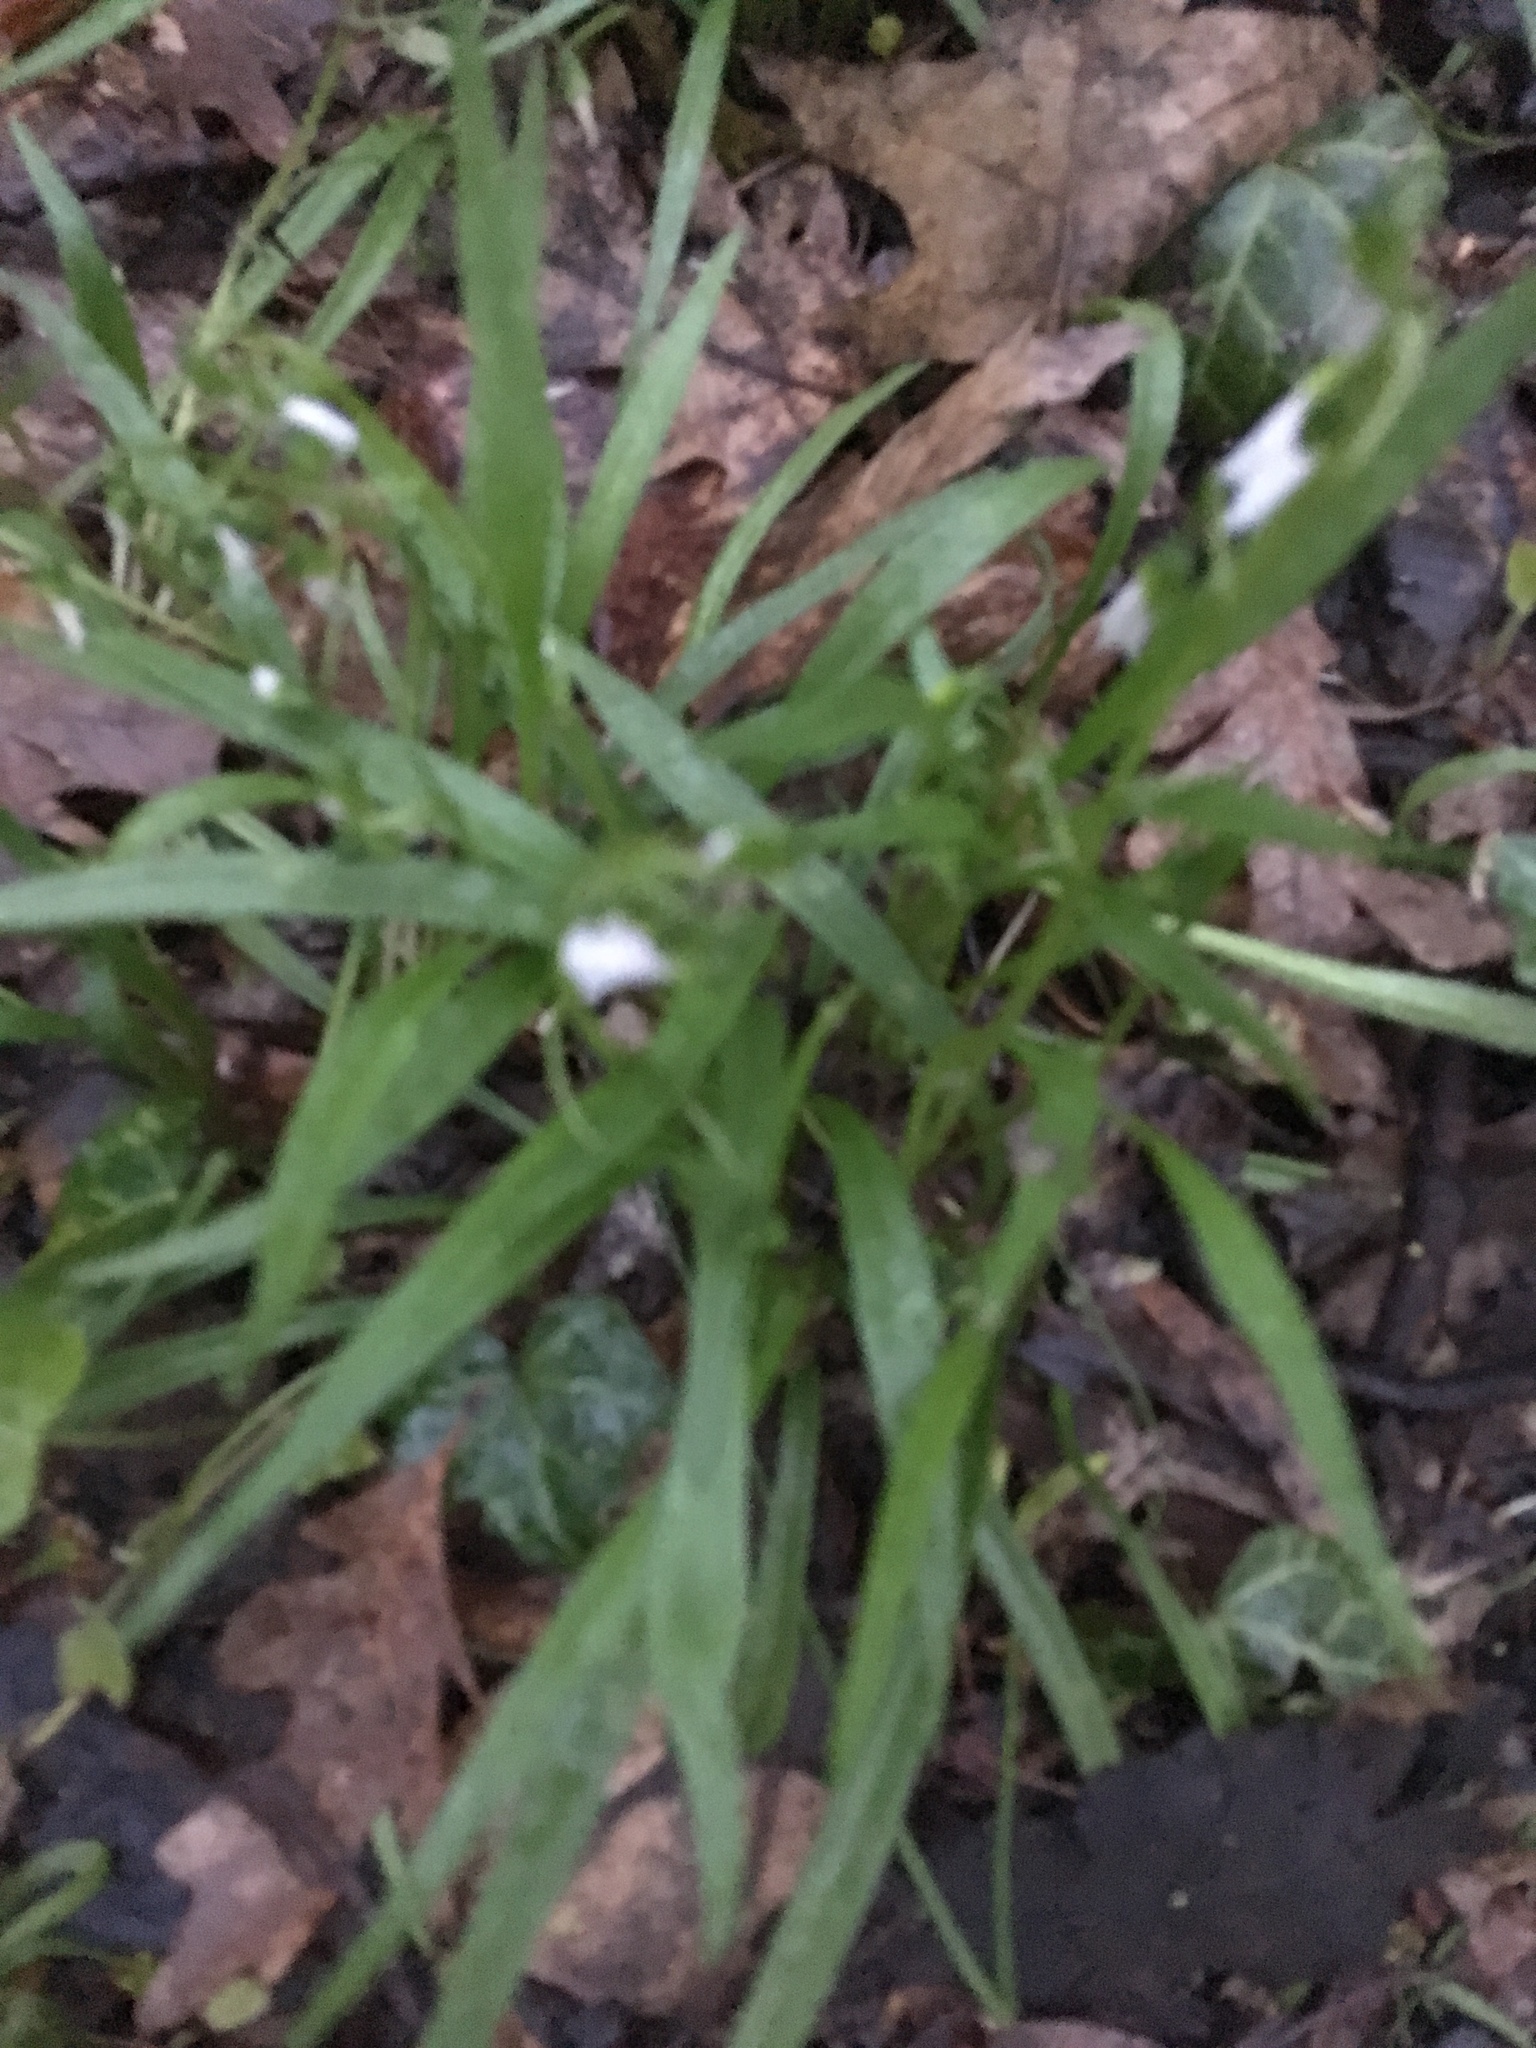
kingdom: Plantae
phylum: Tracheophyta
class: Magnoliopsida
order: Caryophyllales
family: Montiaceae
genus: Claytonia
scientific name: Claytonia virginica
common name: Virginia springbeauty
